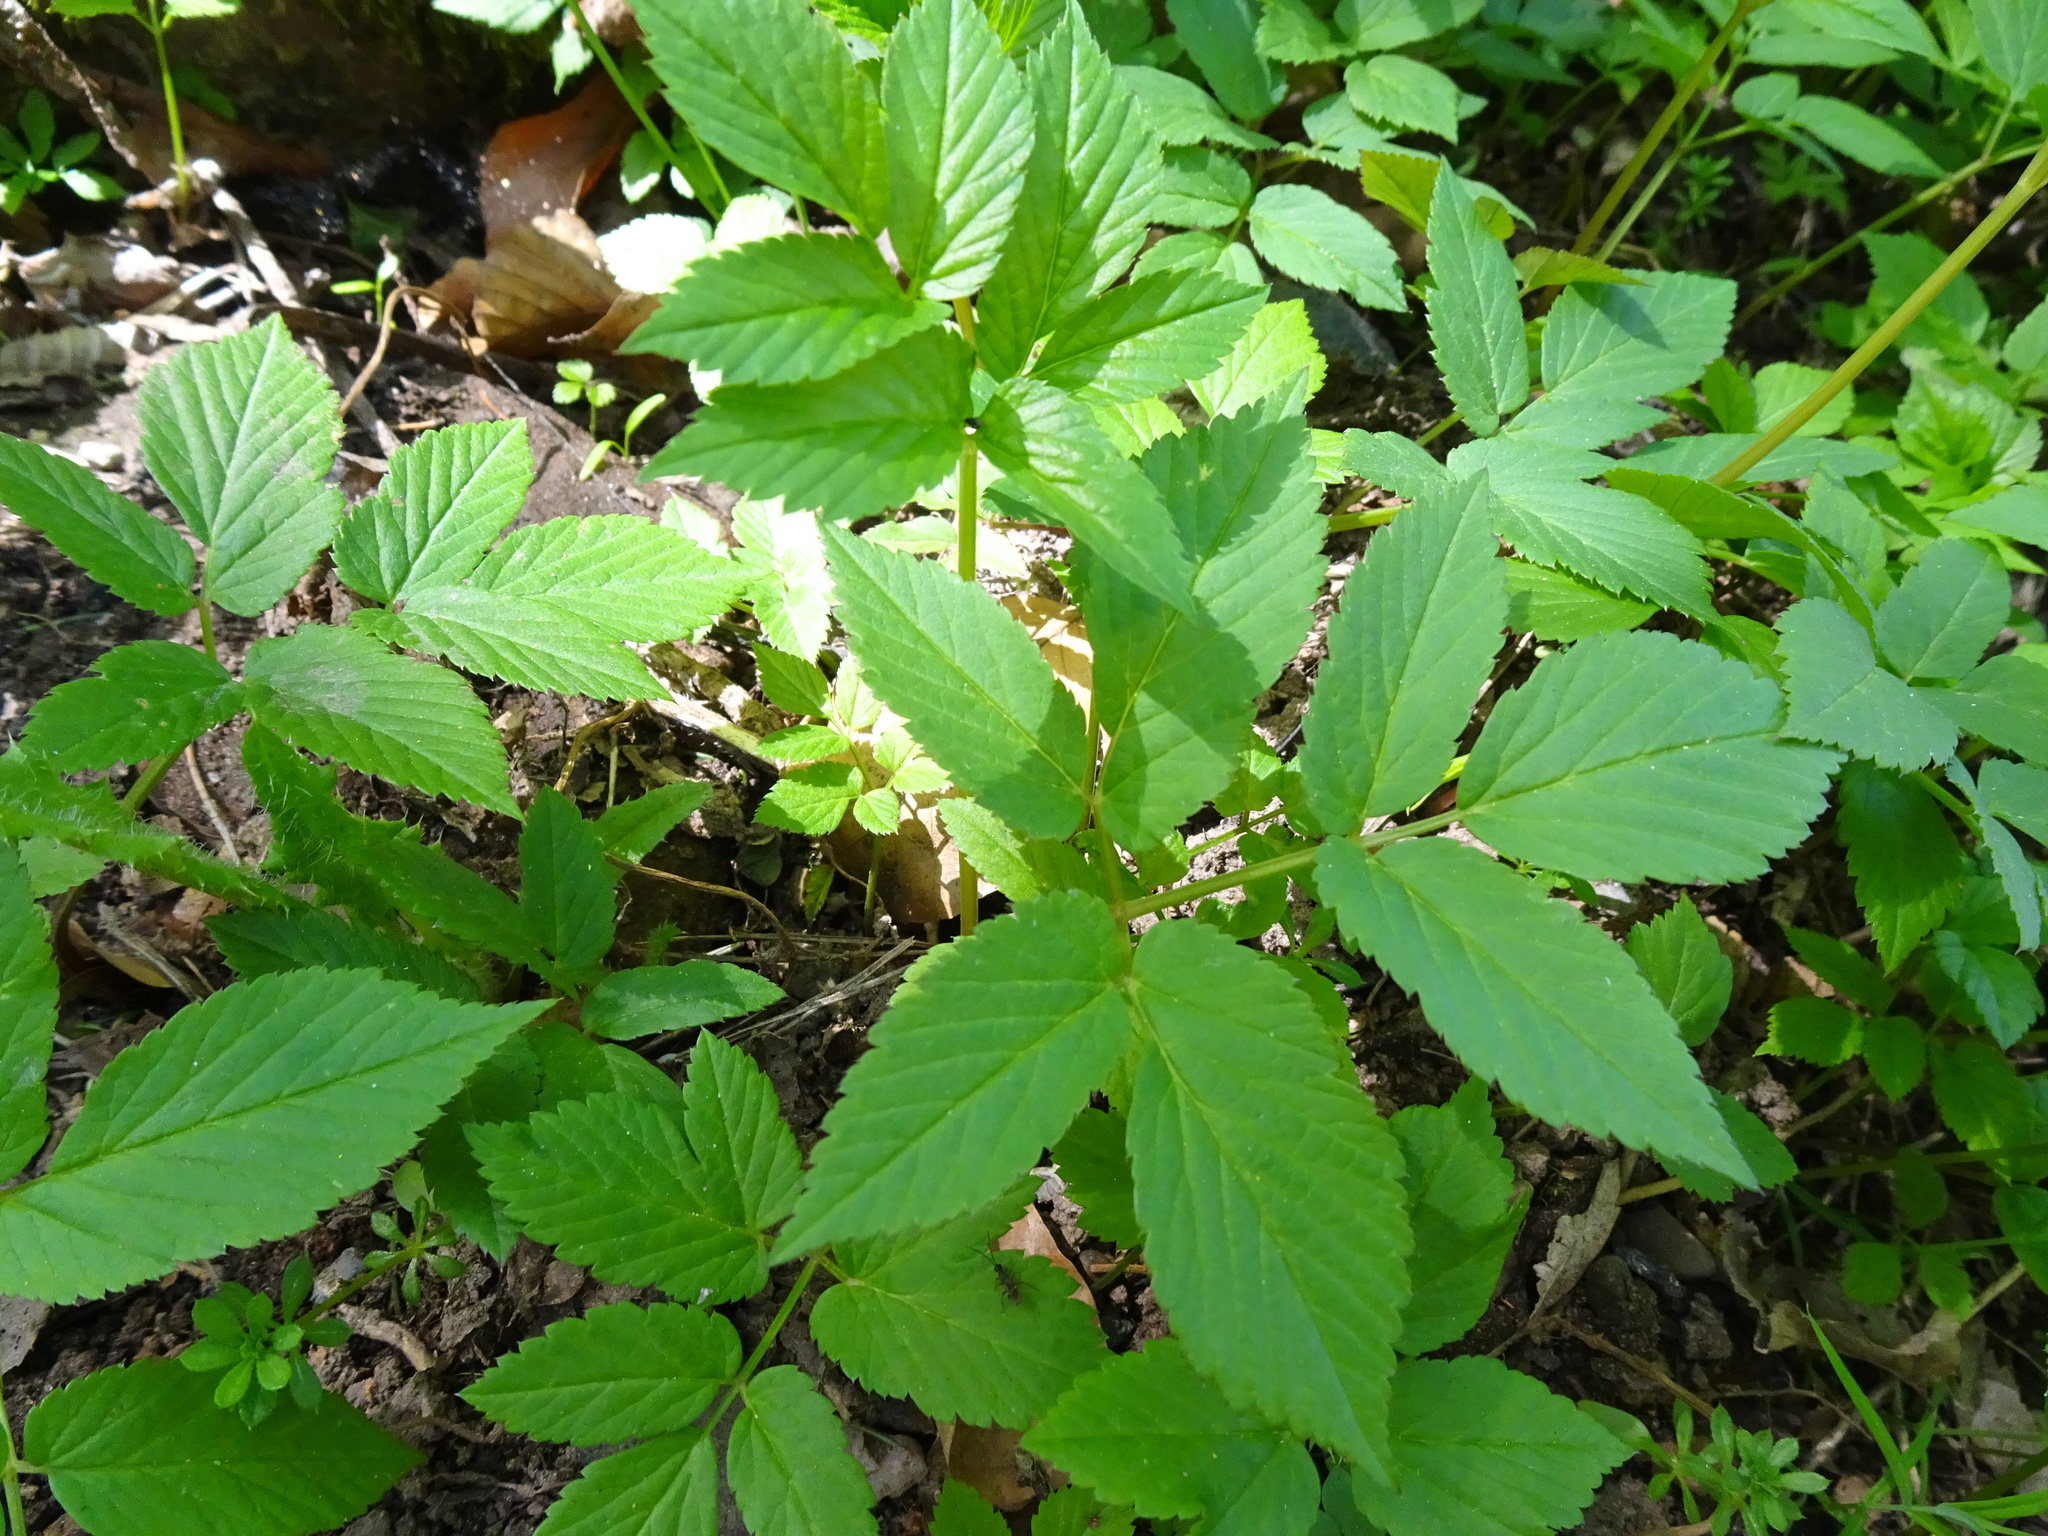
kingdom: Plantae
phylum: Tracheophyta
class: Magnoliopsida
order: Apiales
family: Apiaceae
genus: Aegopodium
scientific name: Aegopodium podagraria
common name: Ground-elder
